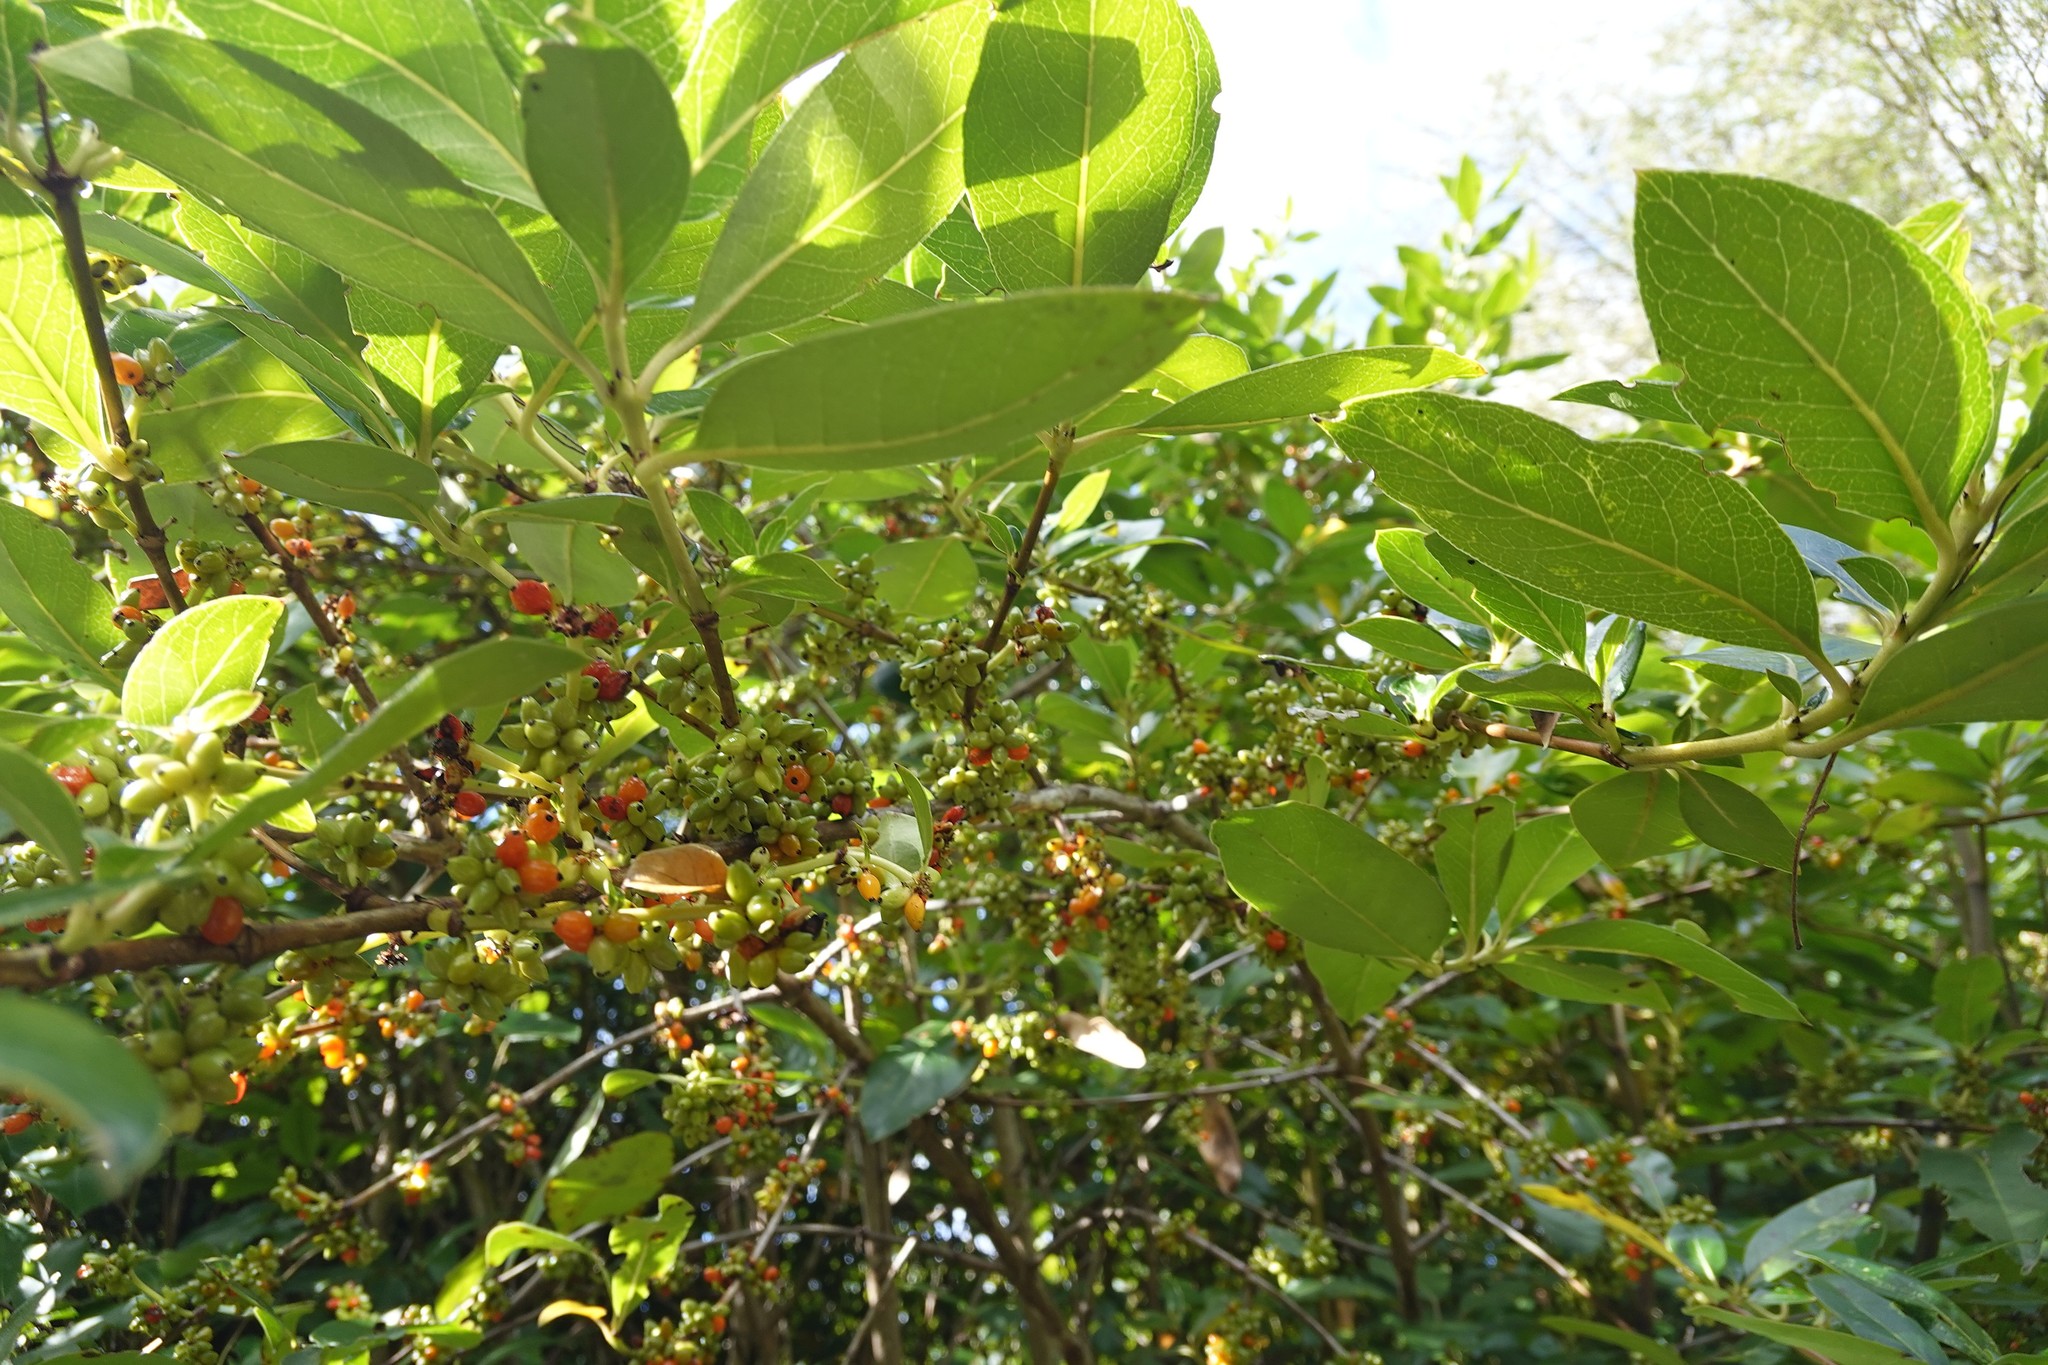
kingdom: Plantae
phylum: Tracheophyta
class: Magnoliopsida
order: Gentianales
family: Rubiaceae
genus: Coprosma
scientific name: Coprosma robusta
